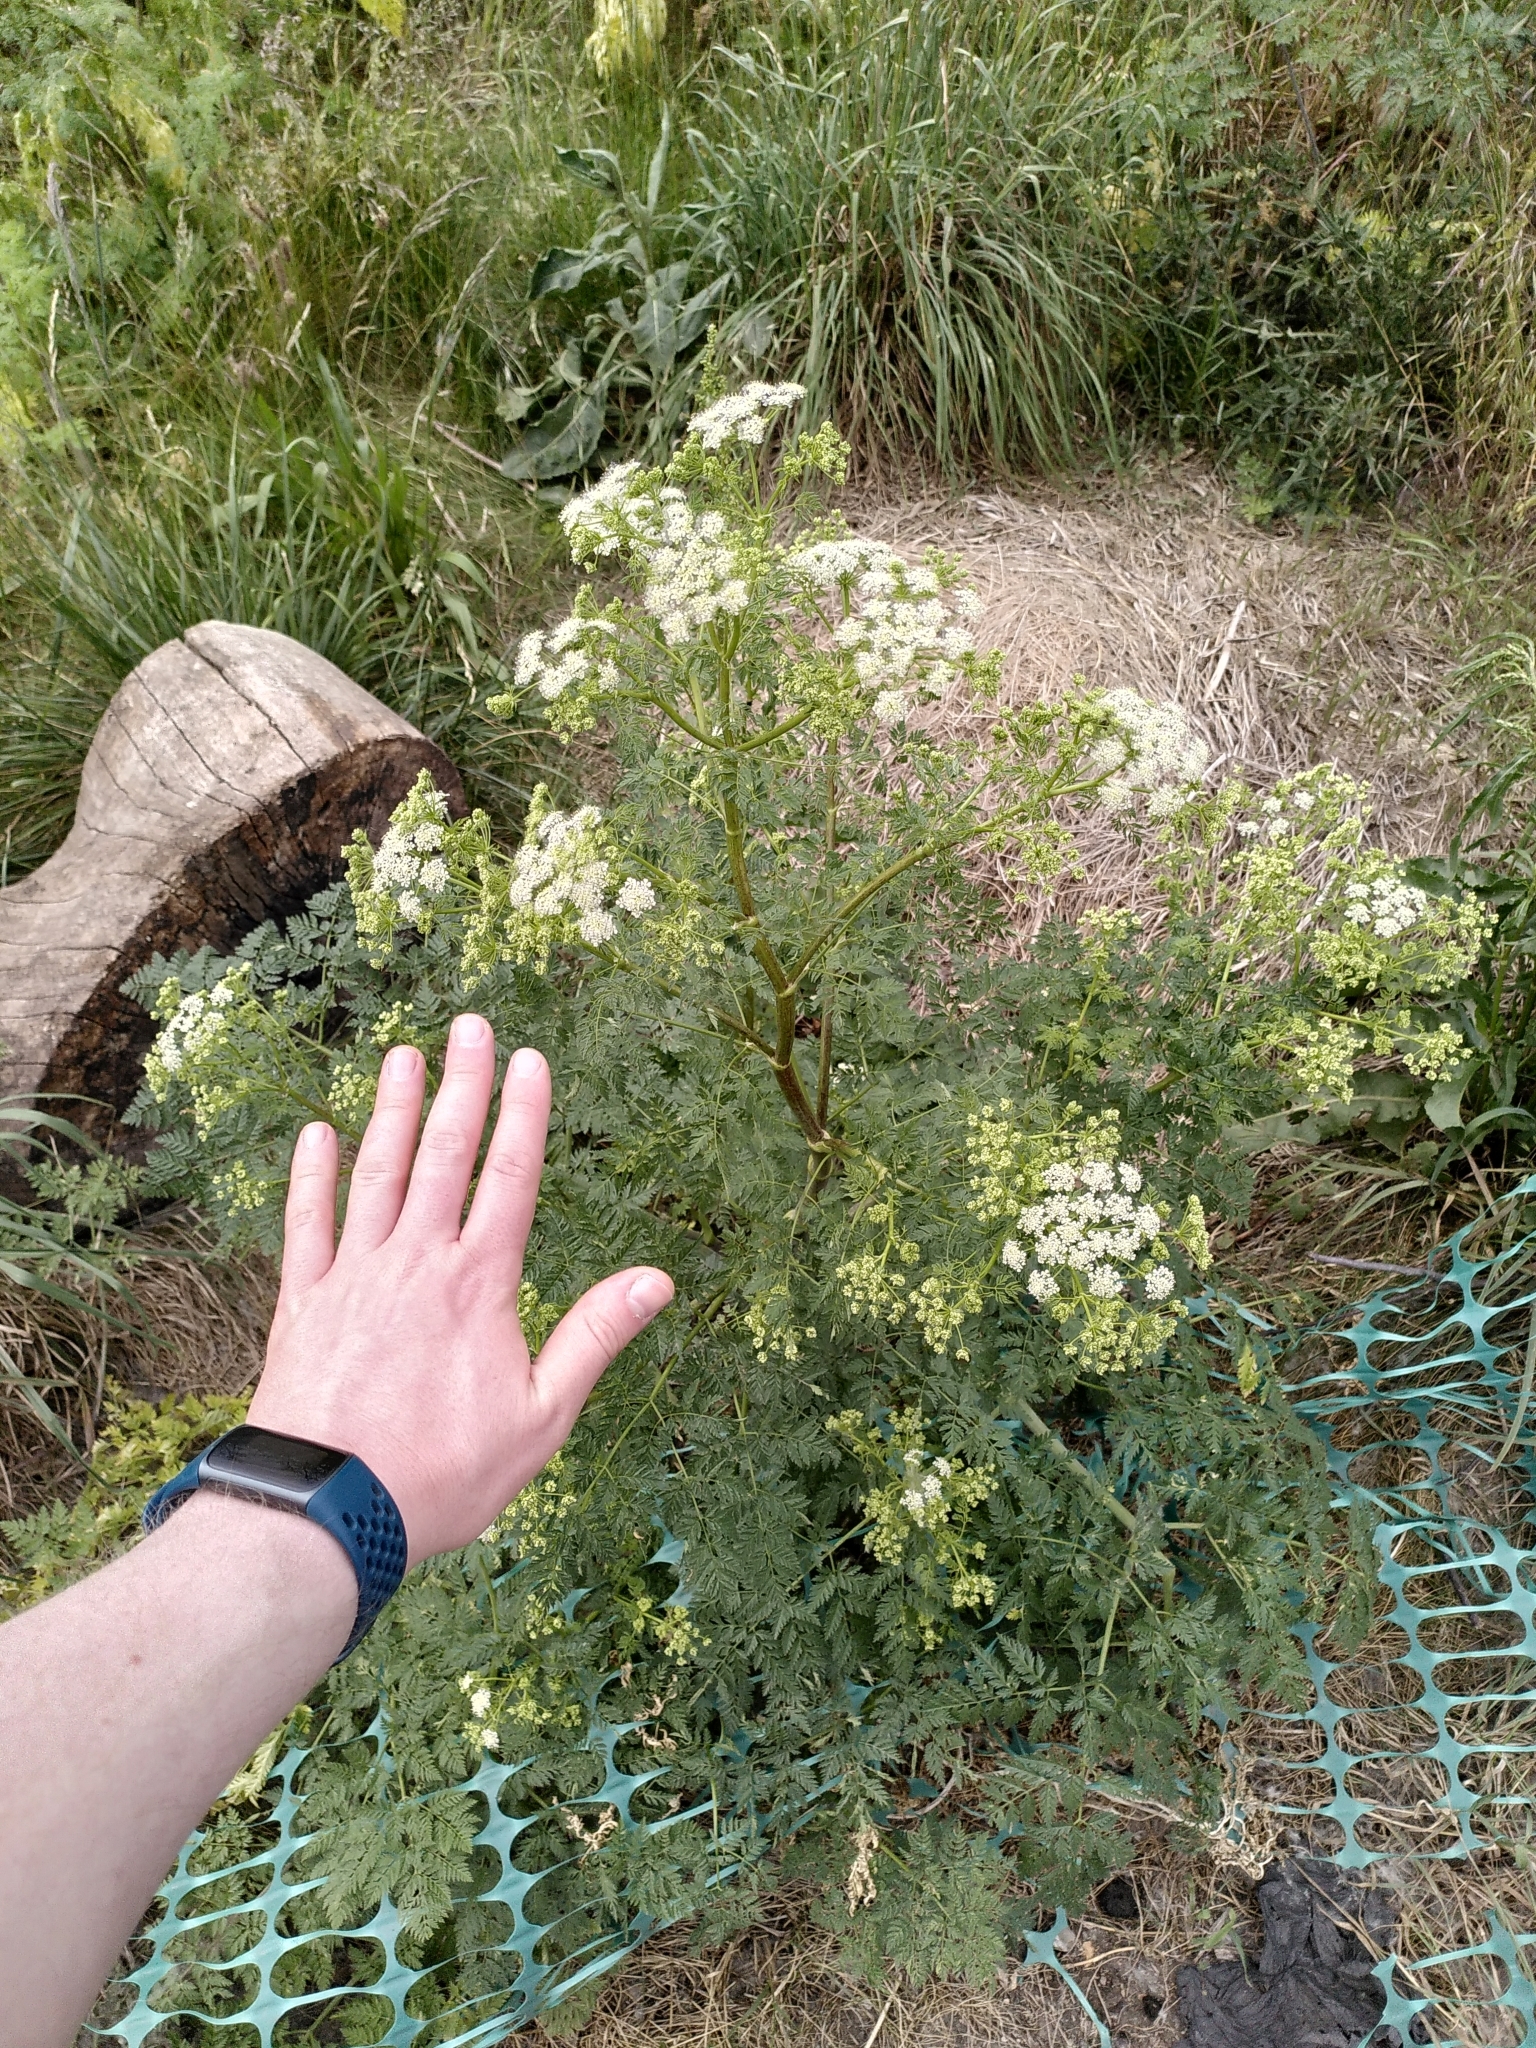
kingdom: Plantae
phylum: Tracheophyta
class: Magnoliopsida
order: Apiales
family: Apiaceae
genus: Conium
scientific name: Conium maculatum
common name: Hemlock
